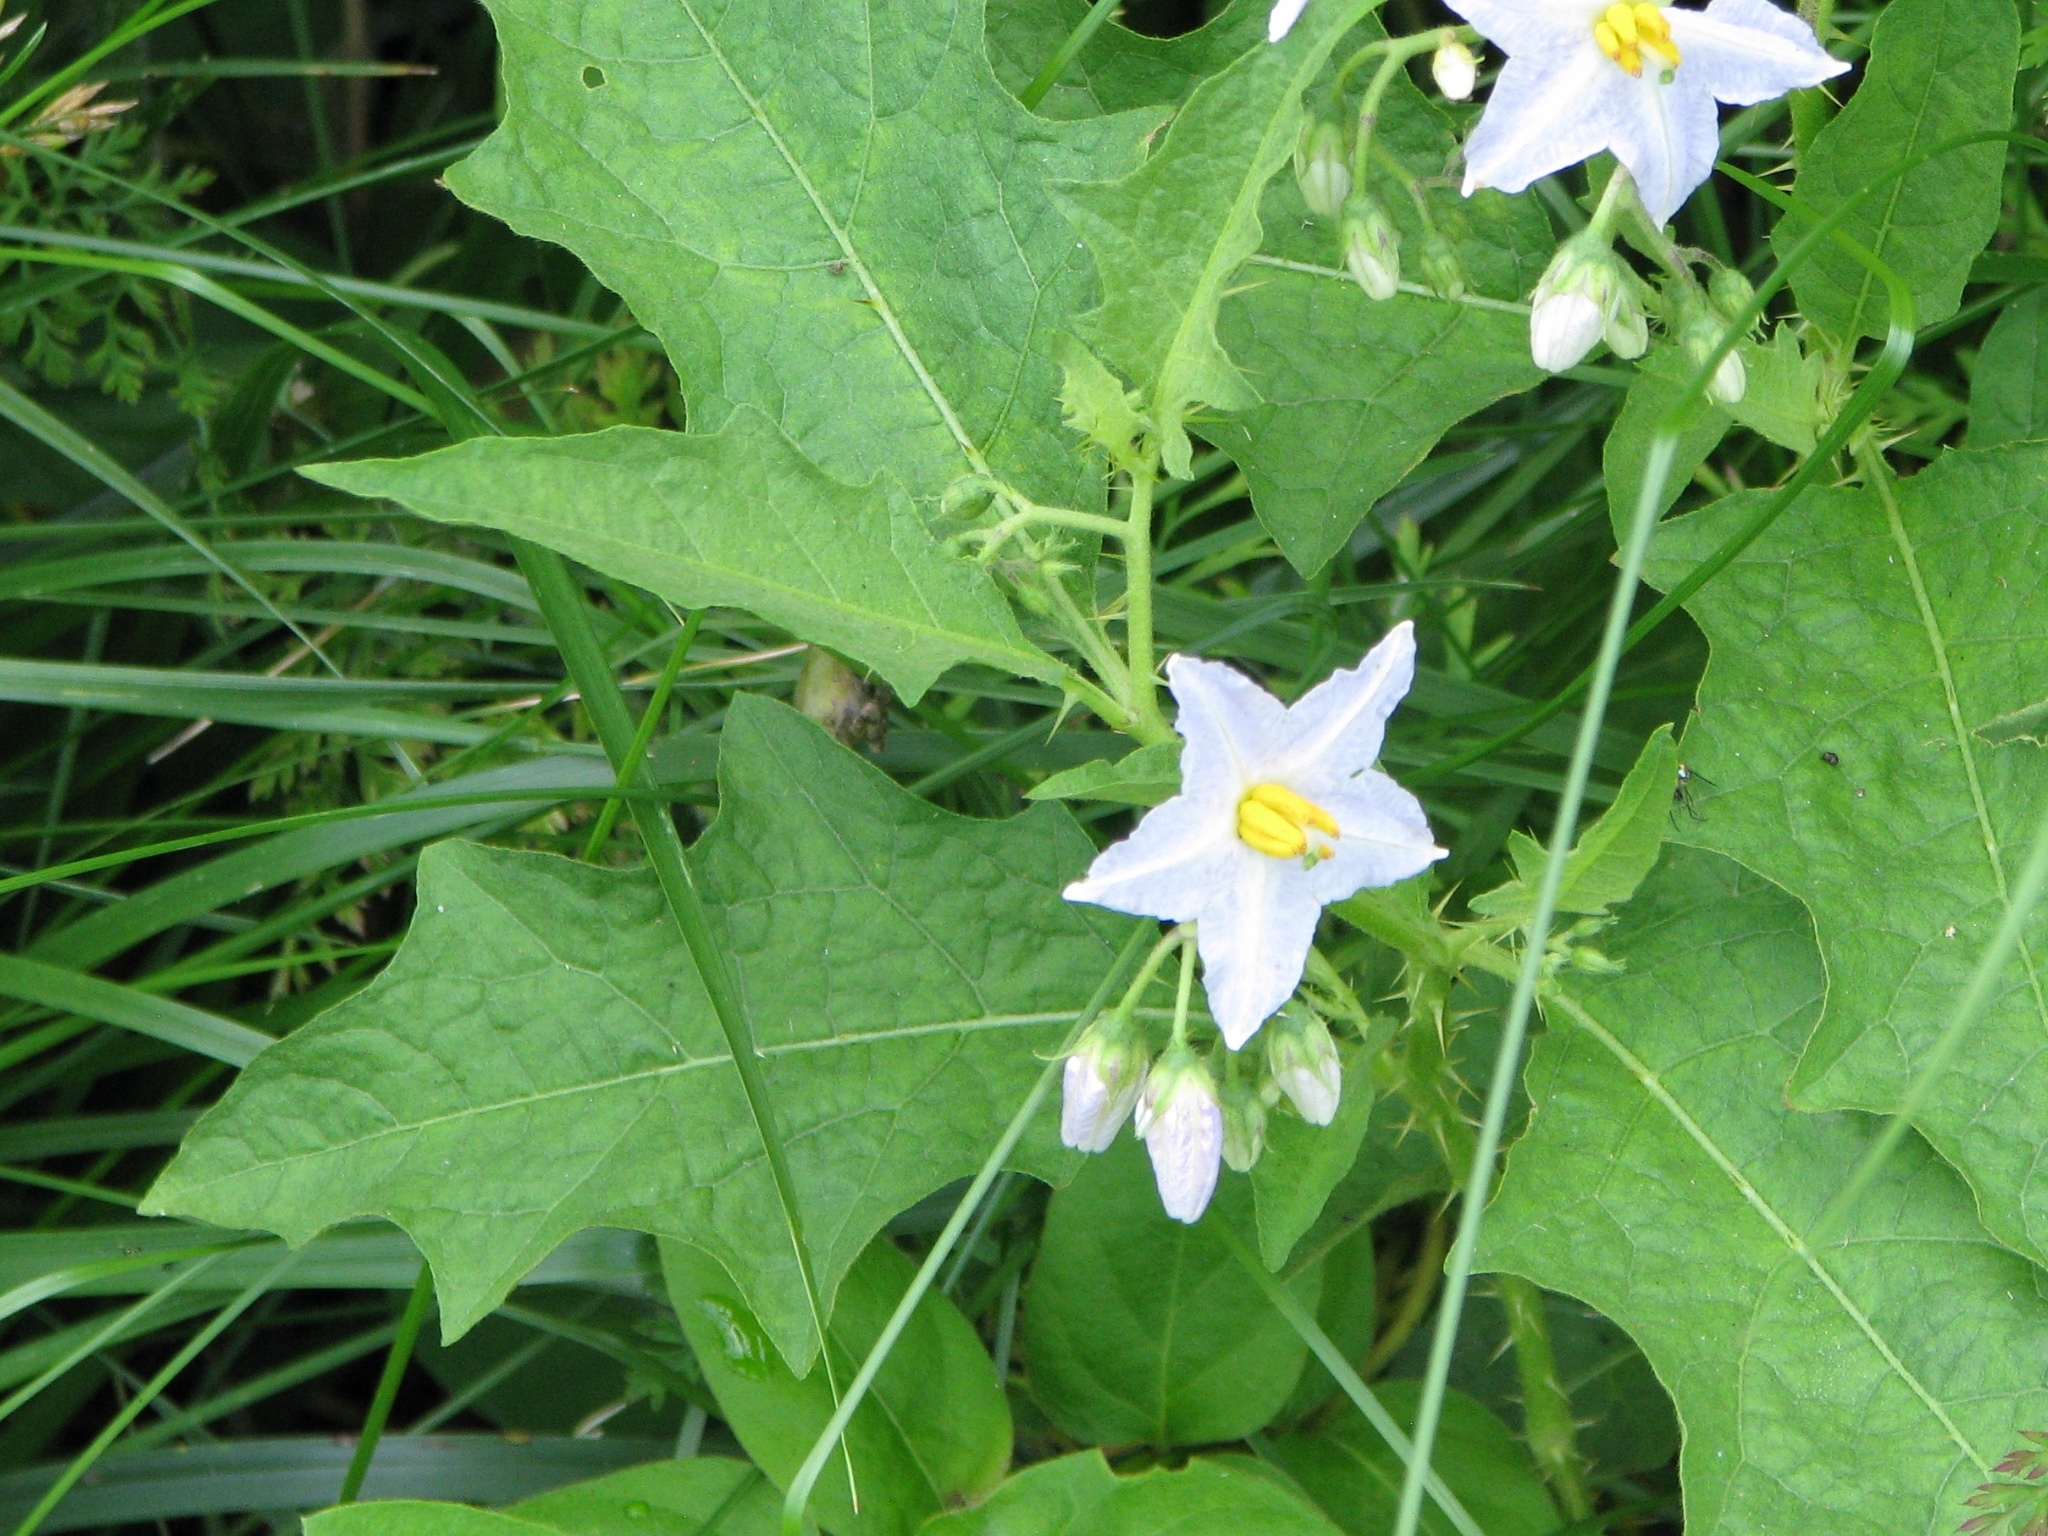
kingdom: Plantae
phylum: Tracheophyta
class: Magnoliopsida
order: Solanales
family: Solanaceae
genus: Solanum
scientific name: Solanum carolinense
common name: Horse-nettle
